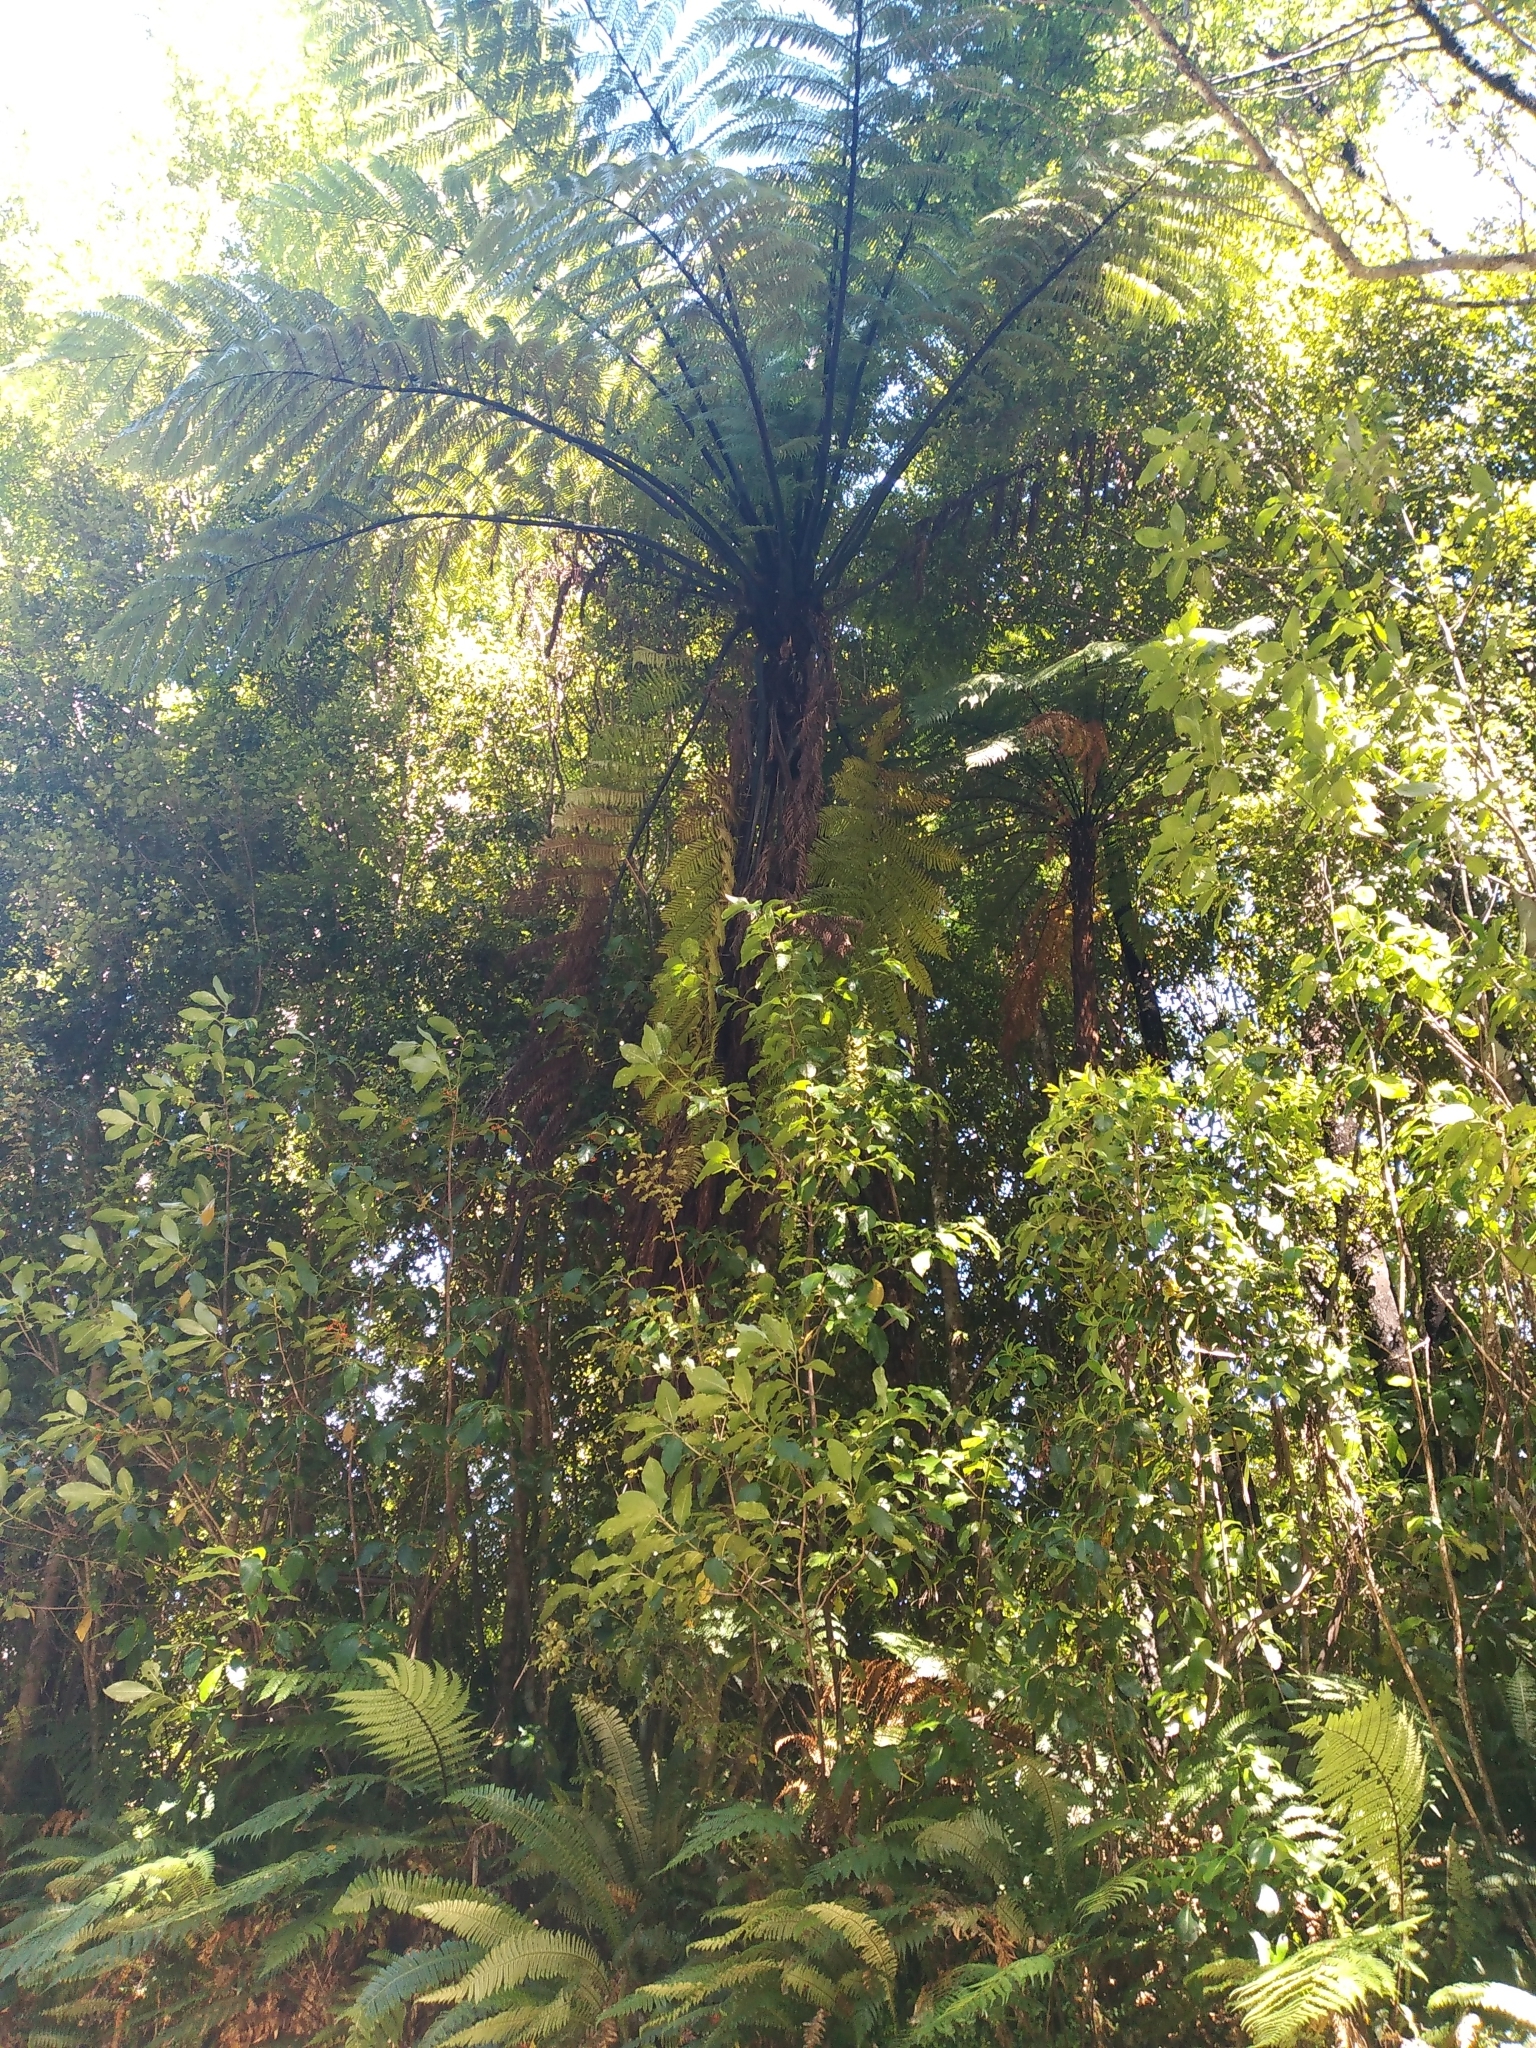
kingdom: Plantae
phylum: Tracheophyta
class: Polypodiopsida
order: Cyatheales
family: Cyatheaceae
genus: Sphaeropteris
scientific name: Sphaeropteris medullaris
